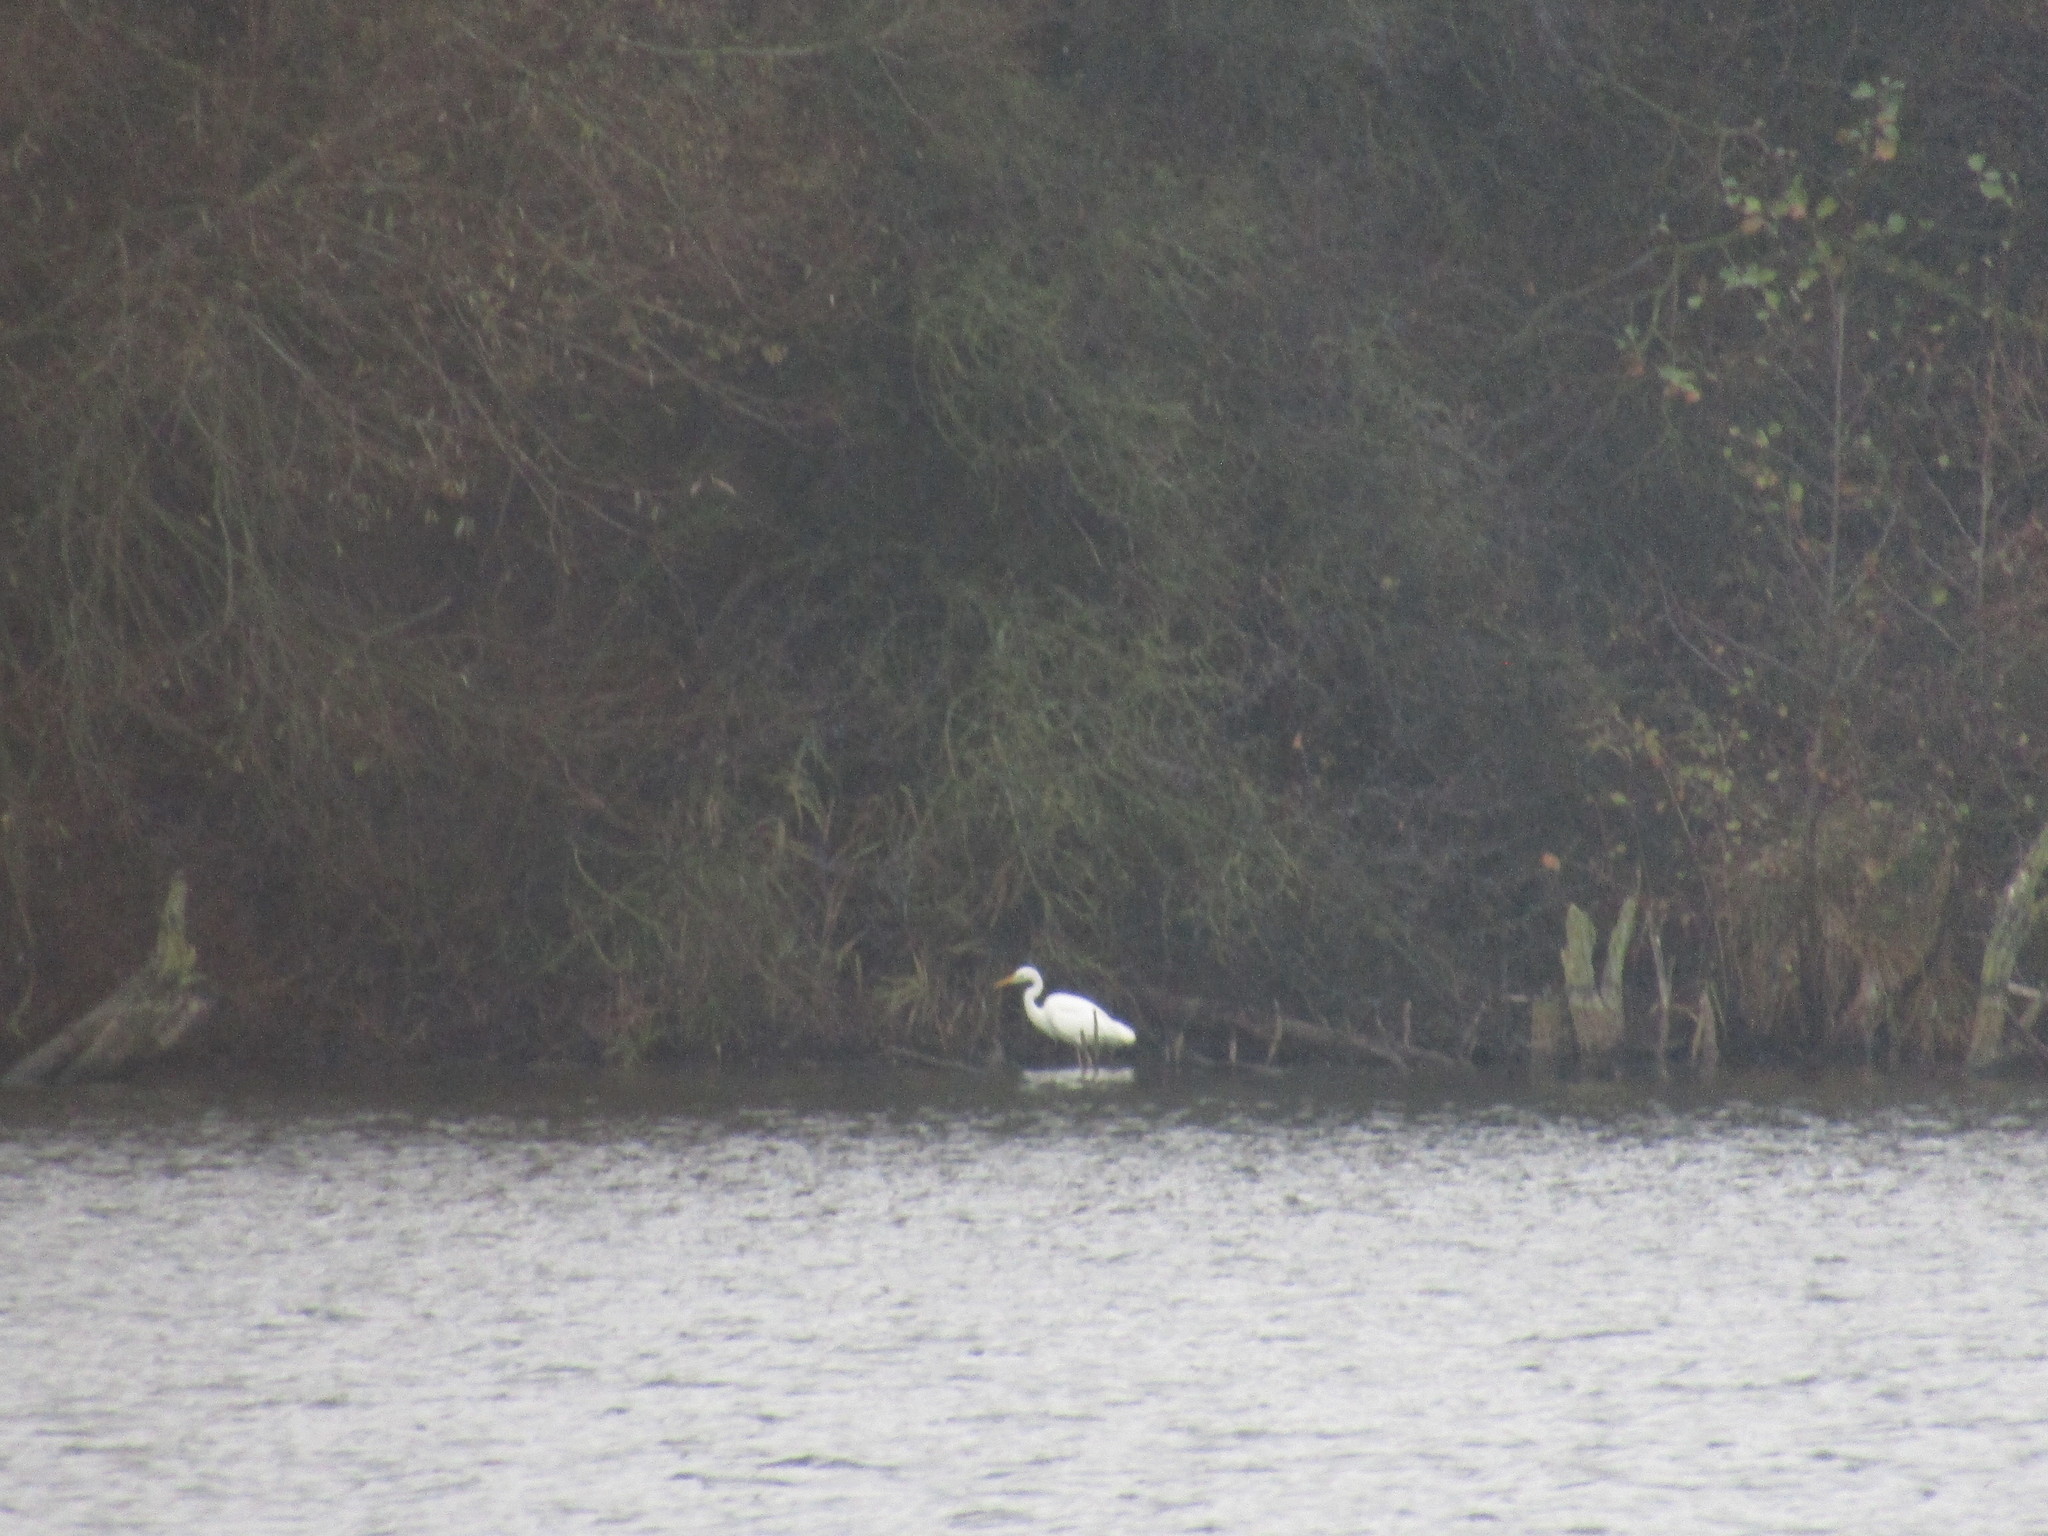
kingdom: Animalia
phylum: Chordata
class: Aves
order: Pelecaniformes
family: Ardeidae
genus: Ardea
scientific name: Ardea alba
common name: Great egret
